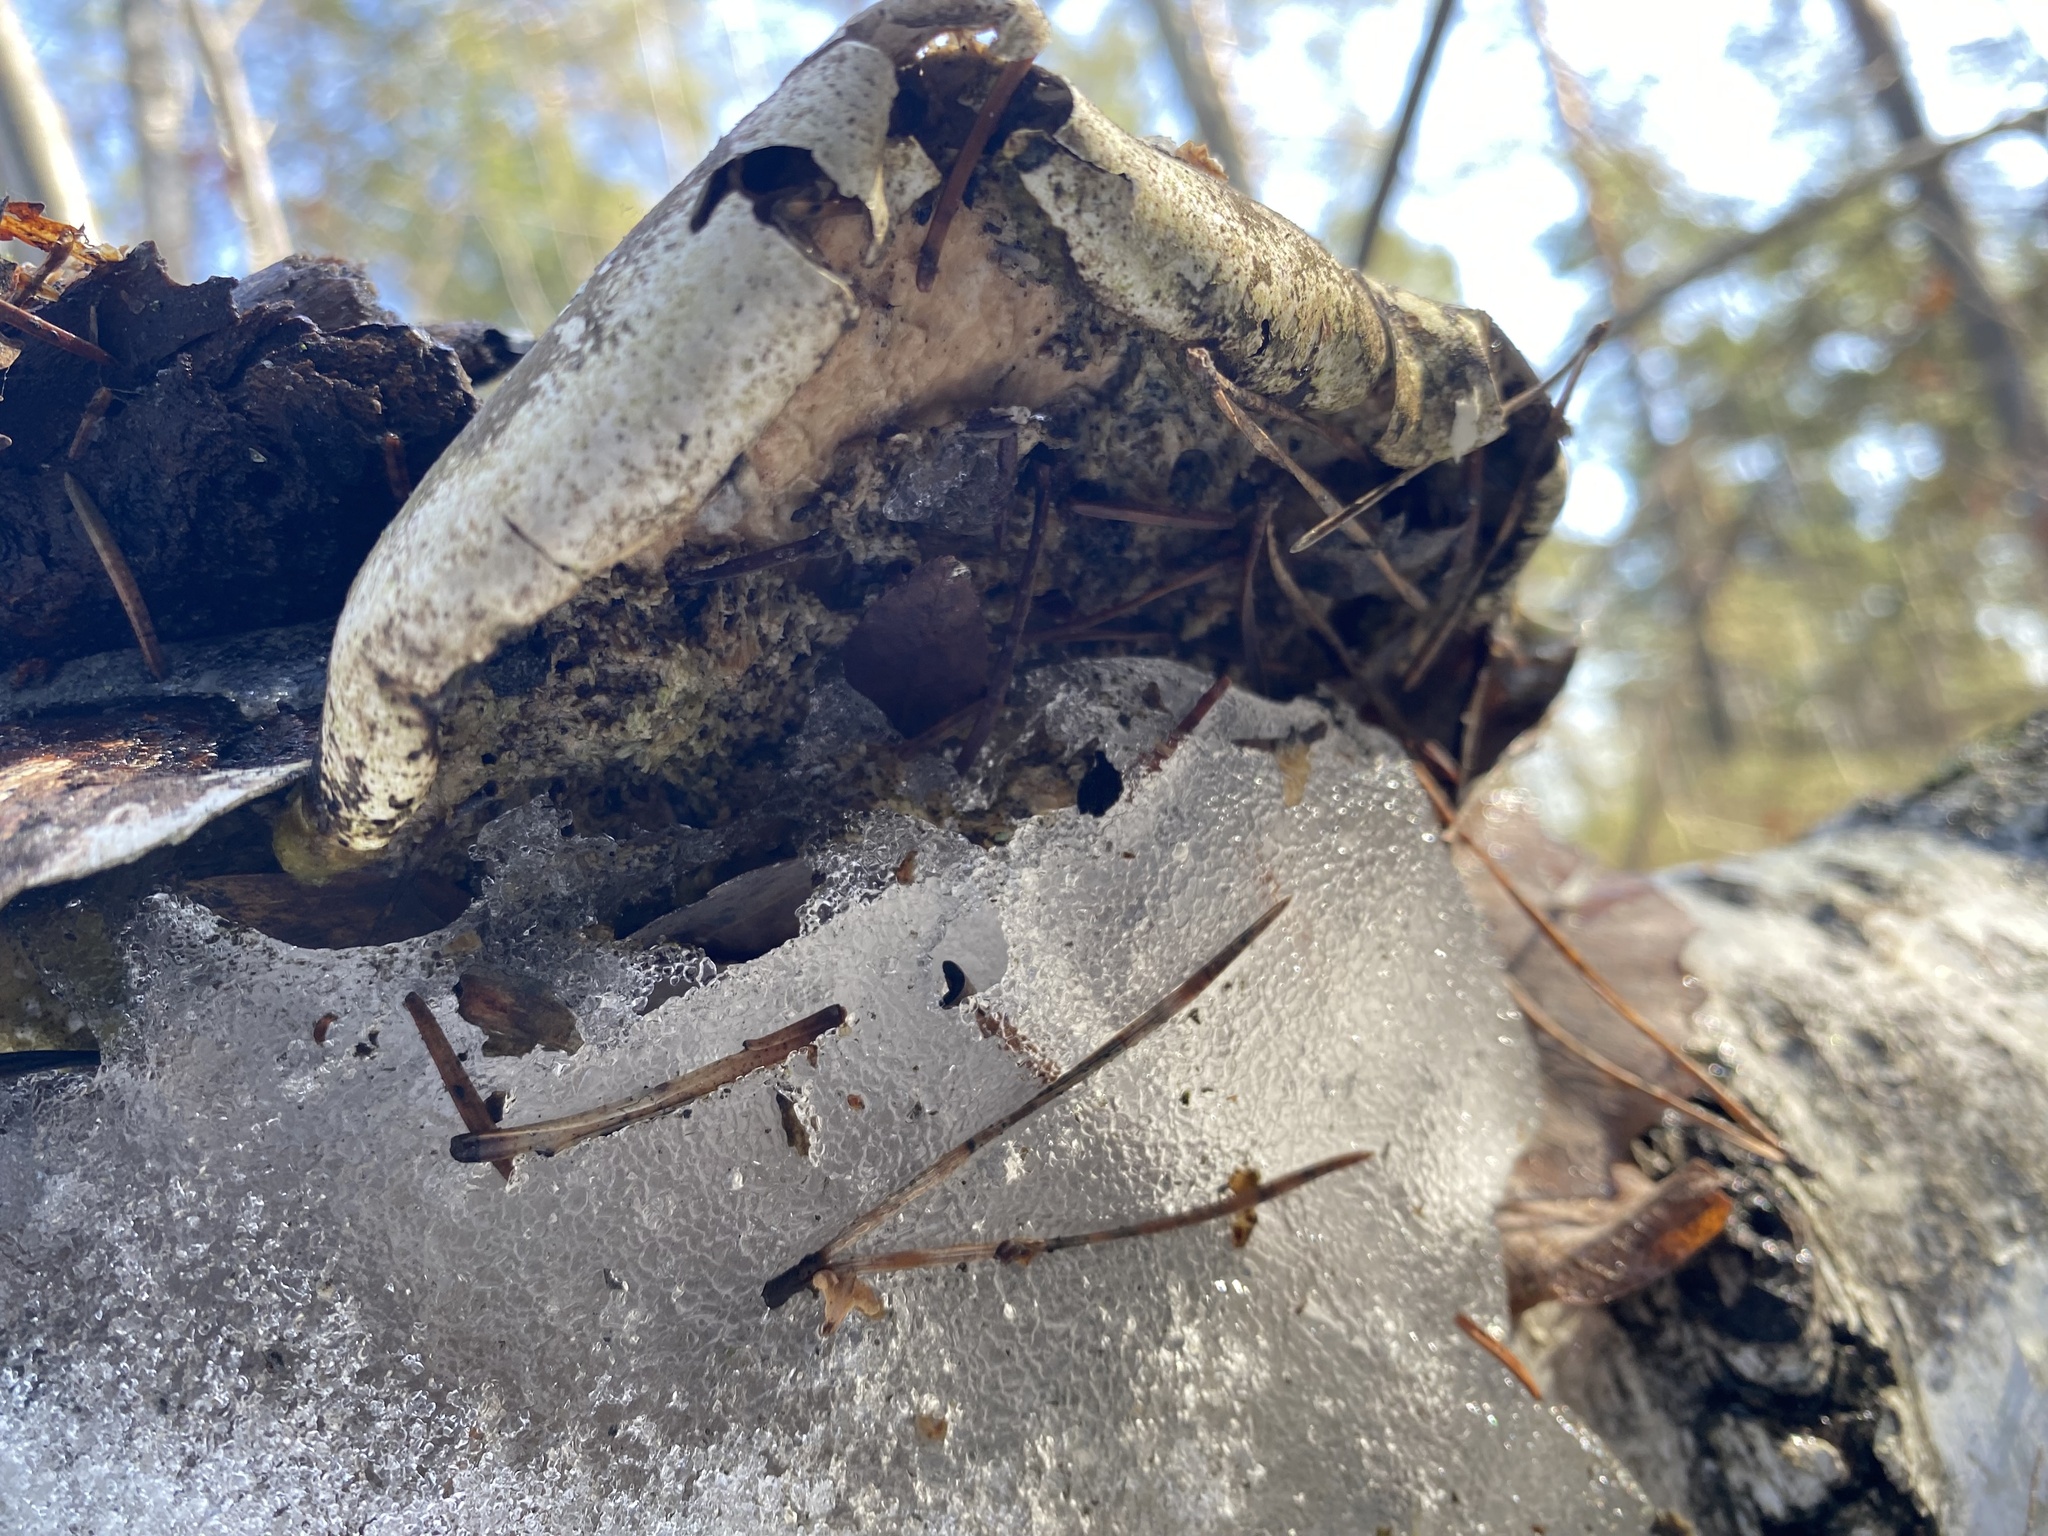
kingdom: Fungi
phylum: Basidiomycota
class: Agaricomycetes
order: Polyporales
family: Fomitopsidaceae
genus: Fomitopsis
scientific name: Fomitopsis betulina
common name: Birch polypore
